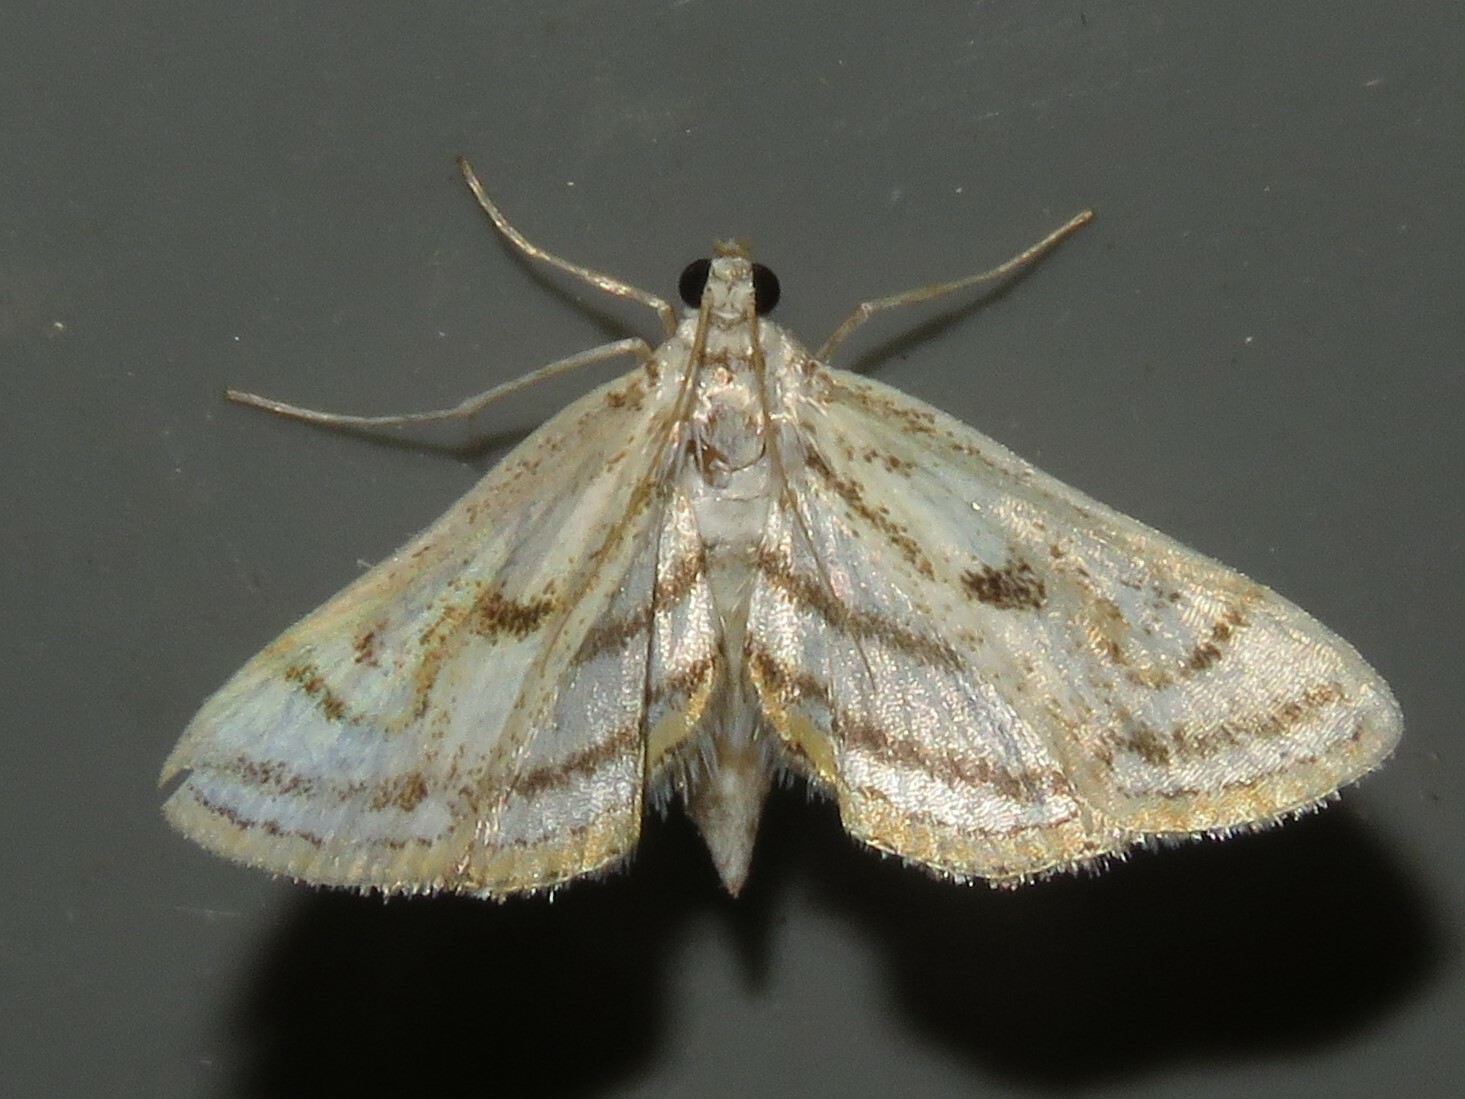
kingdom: Animalia
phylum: Arthropoda
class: Insecta
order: Lepidoptera
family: Crambidae
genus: Parapoynx
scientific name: Parapoynx badiusalis
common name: Chestnut-marked pondweed moth
